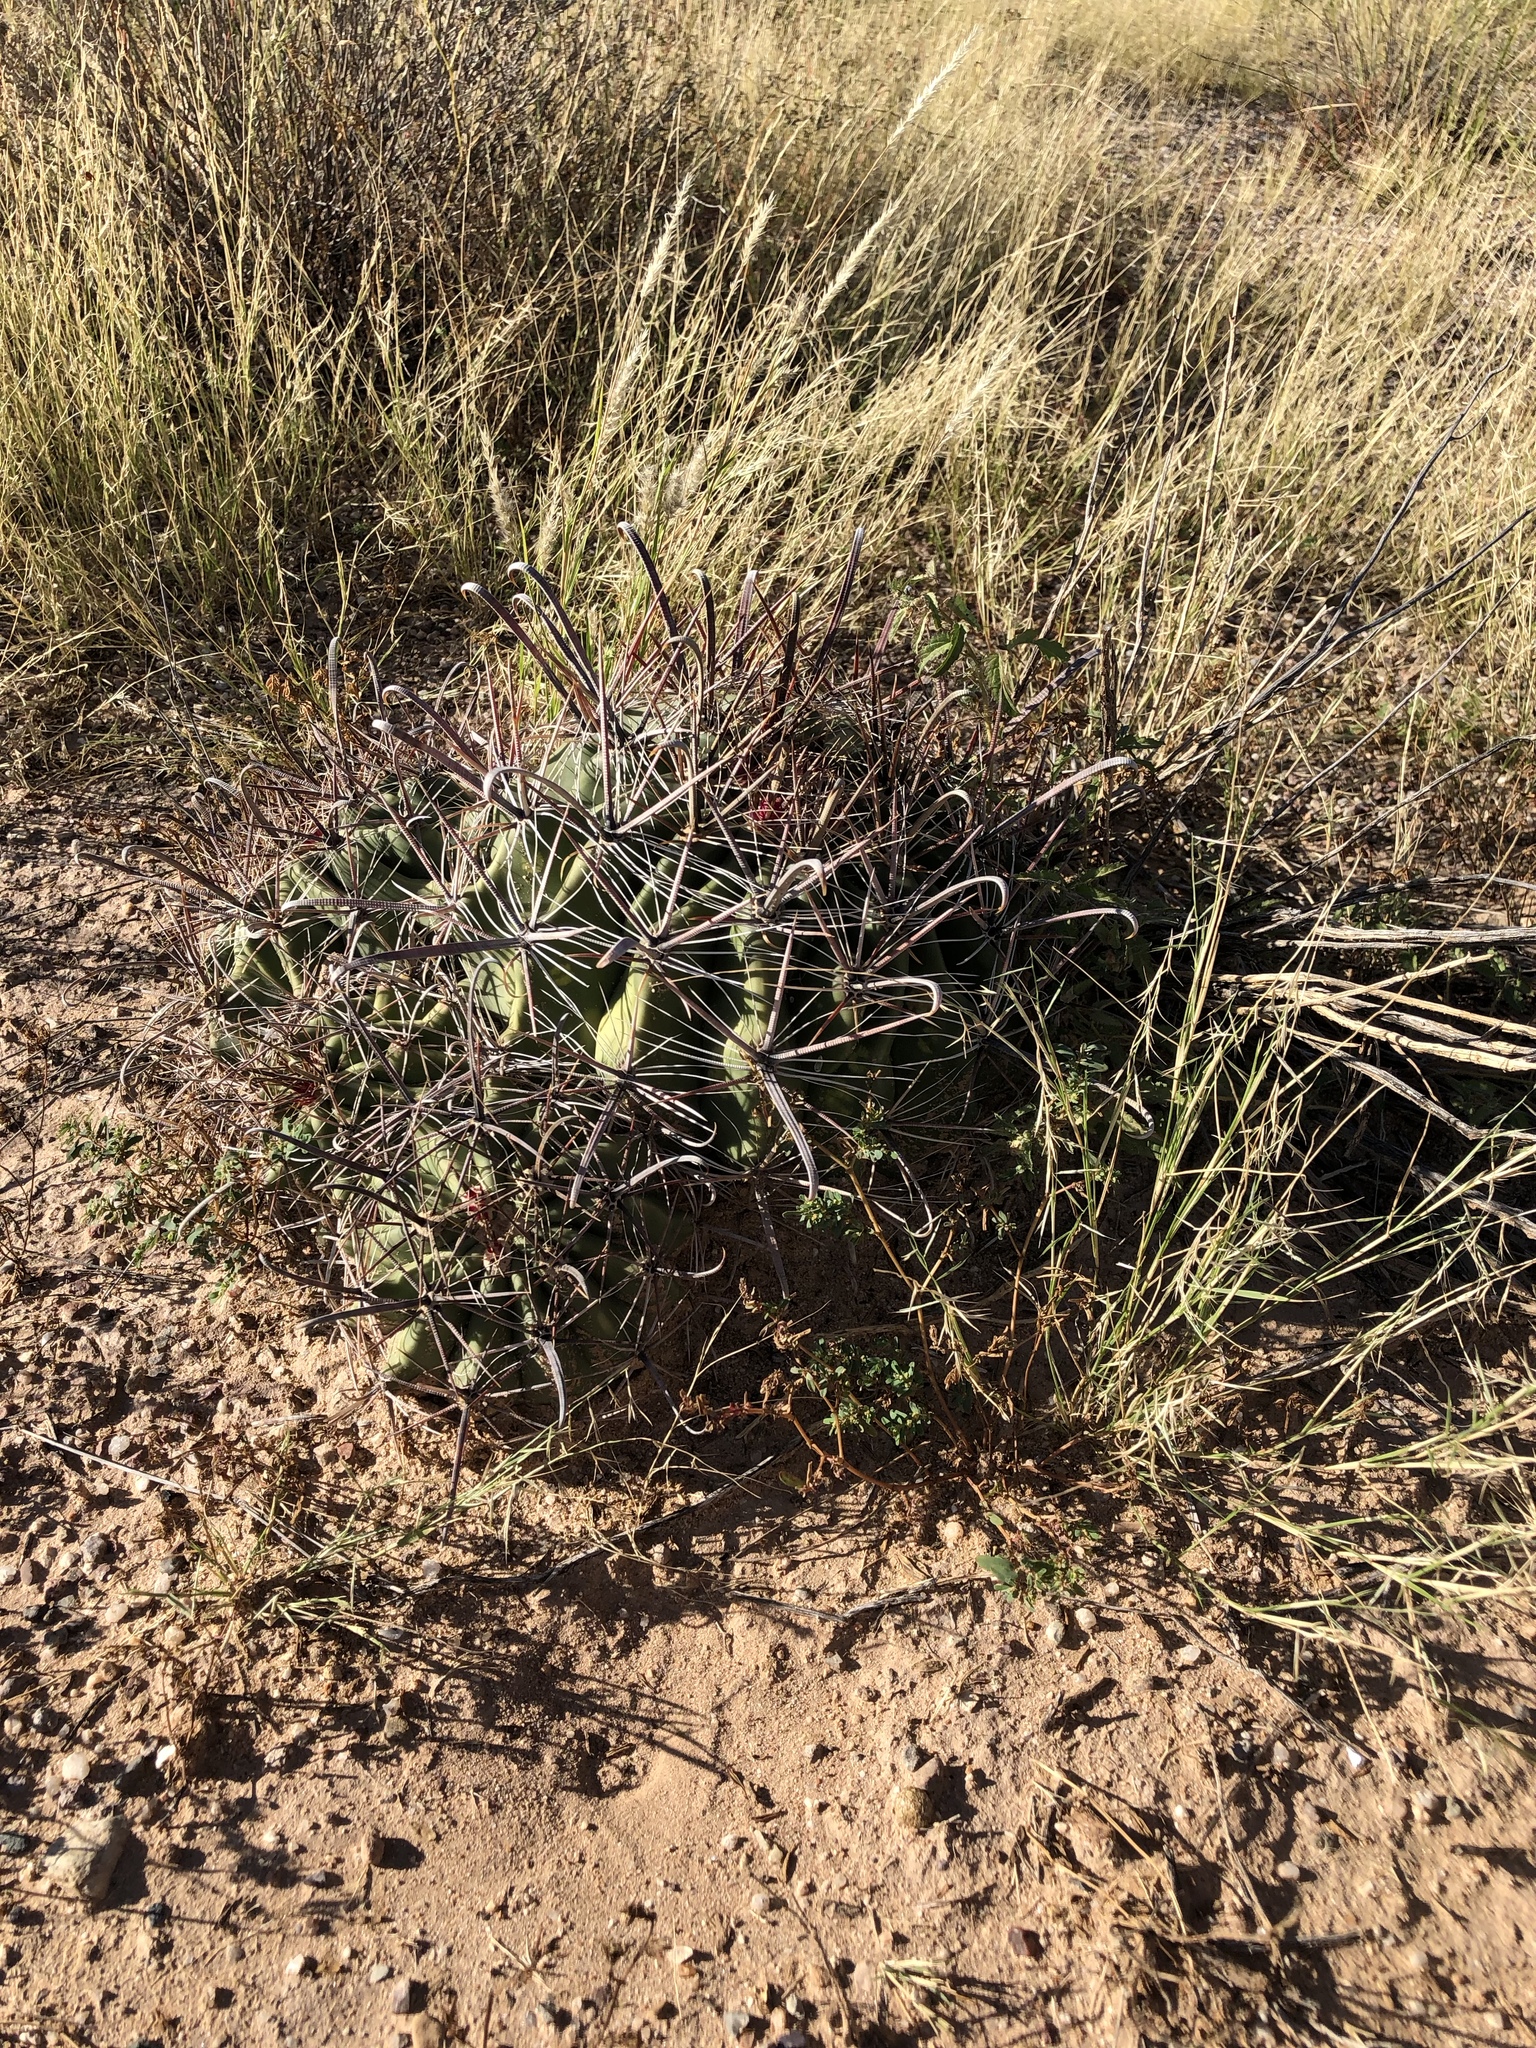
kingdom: Plantae
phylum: Tracheophyta
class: Magnoliopsida
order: Caryophyllales
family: Cactaceae
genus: Ferocactus
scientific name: Ferocactus wislizeni
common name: Candy barrel cactus
